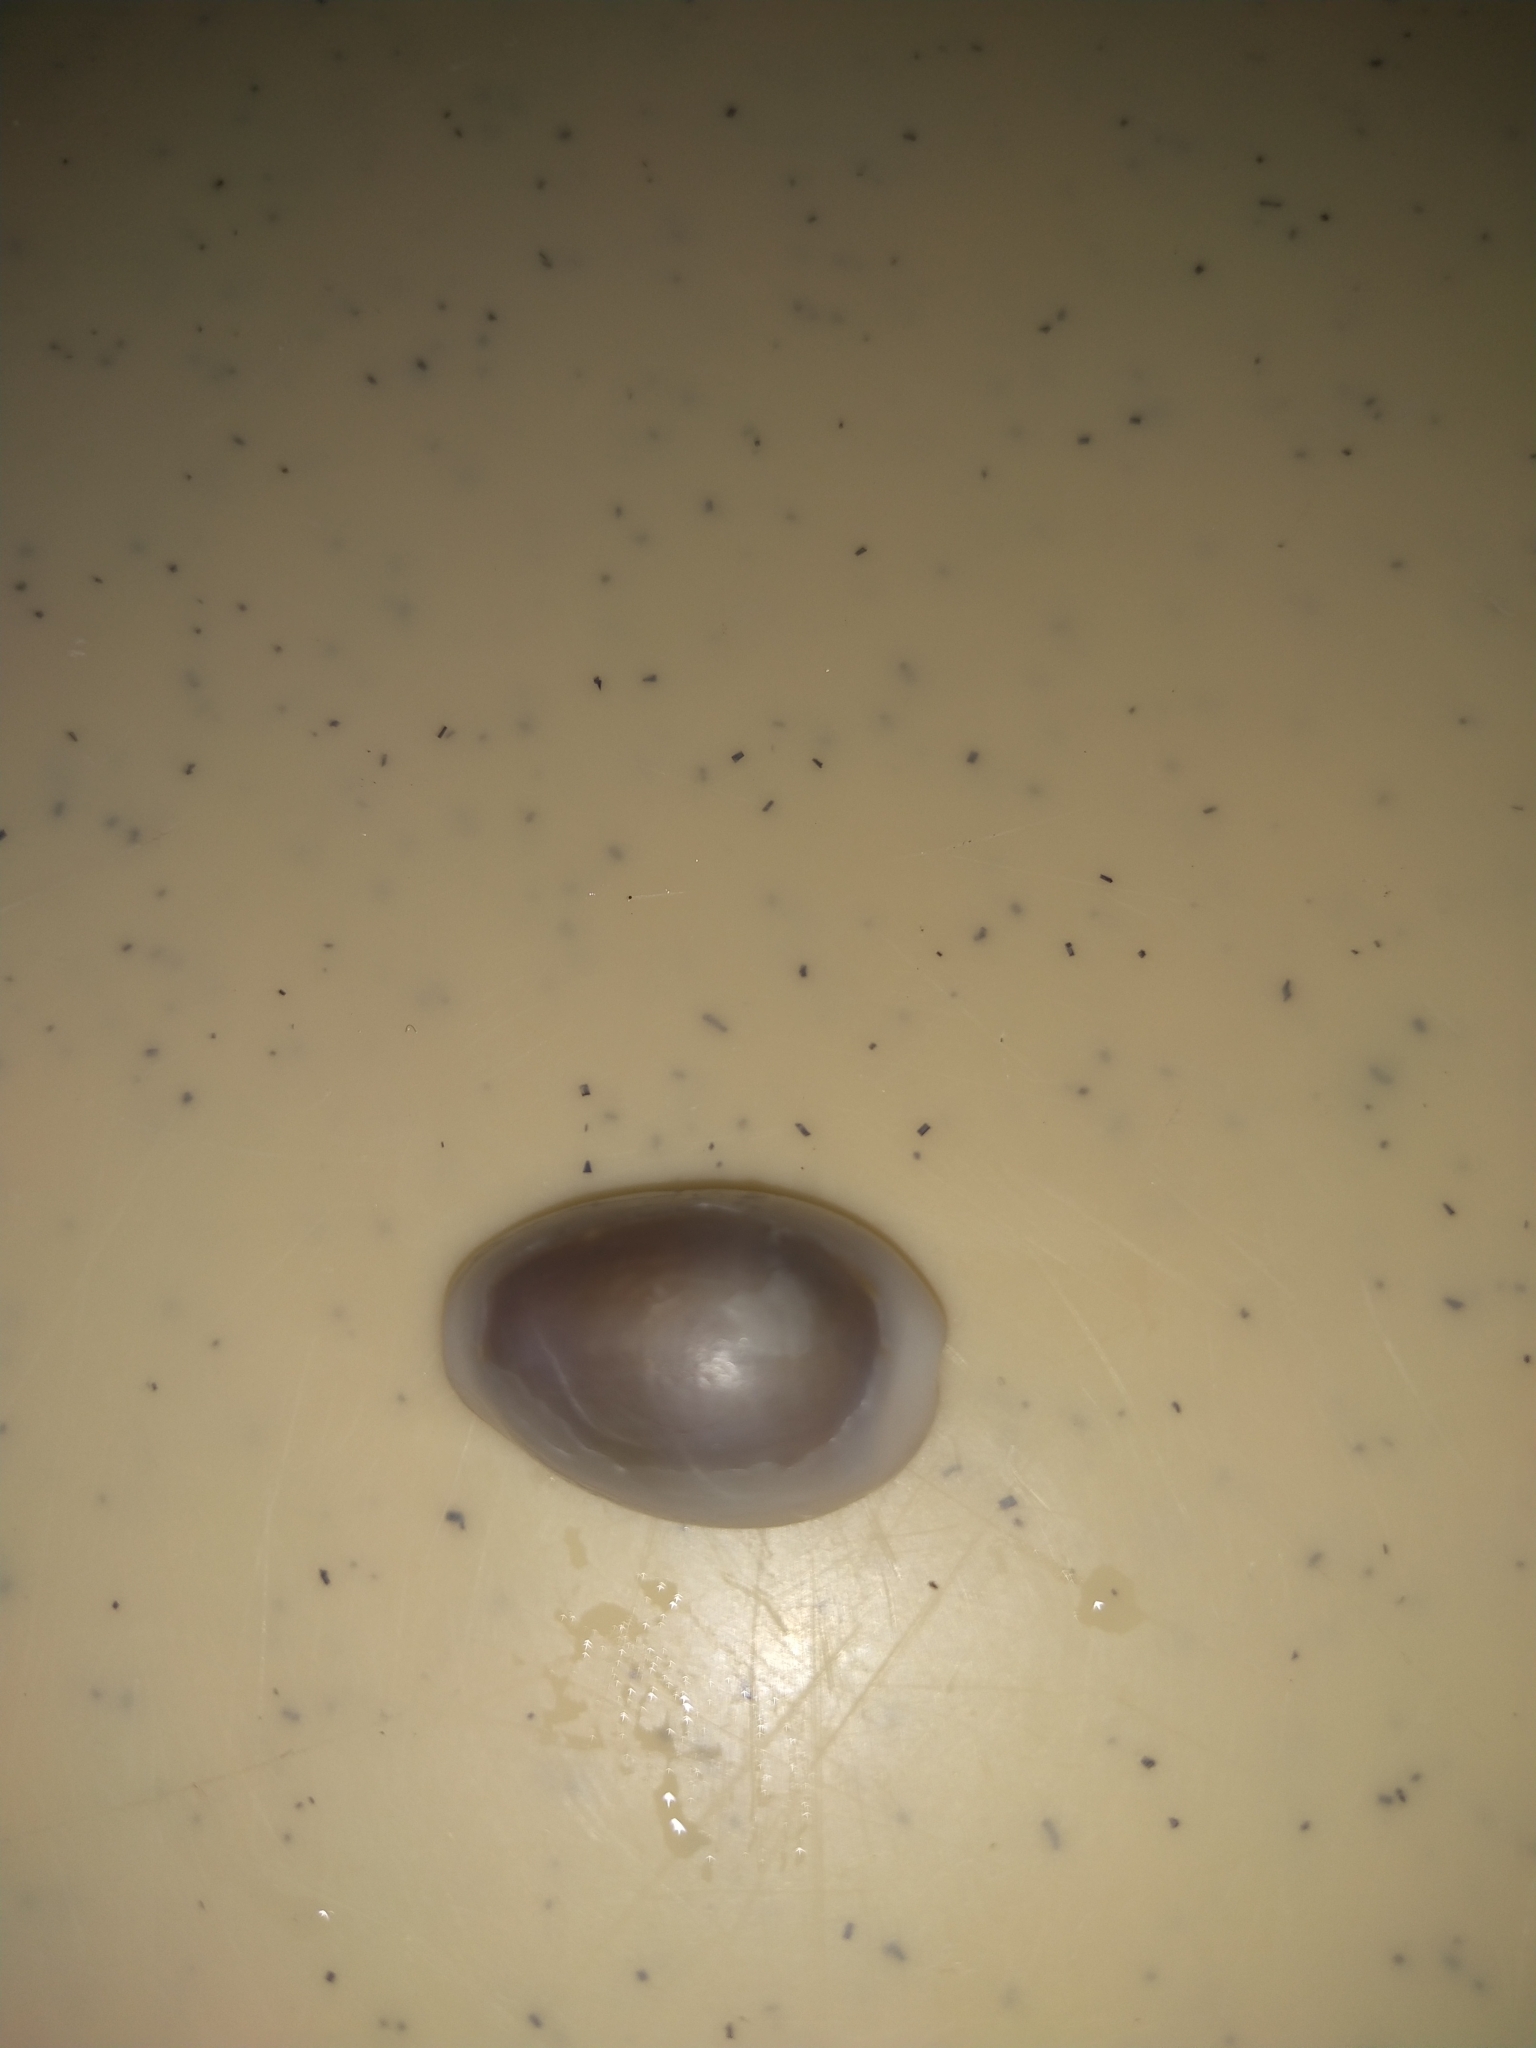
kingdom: Animalia
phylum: Mollusca
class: Gastropoda
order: Littorinimorpha
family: Cypraeidae
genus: Monetaria
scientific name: Monetaria annulus
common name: Ring cowrie
